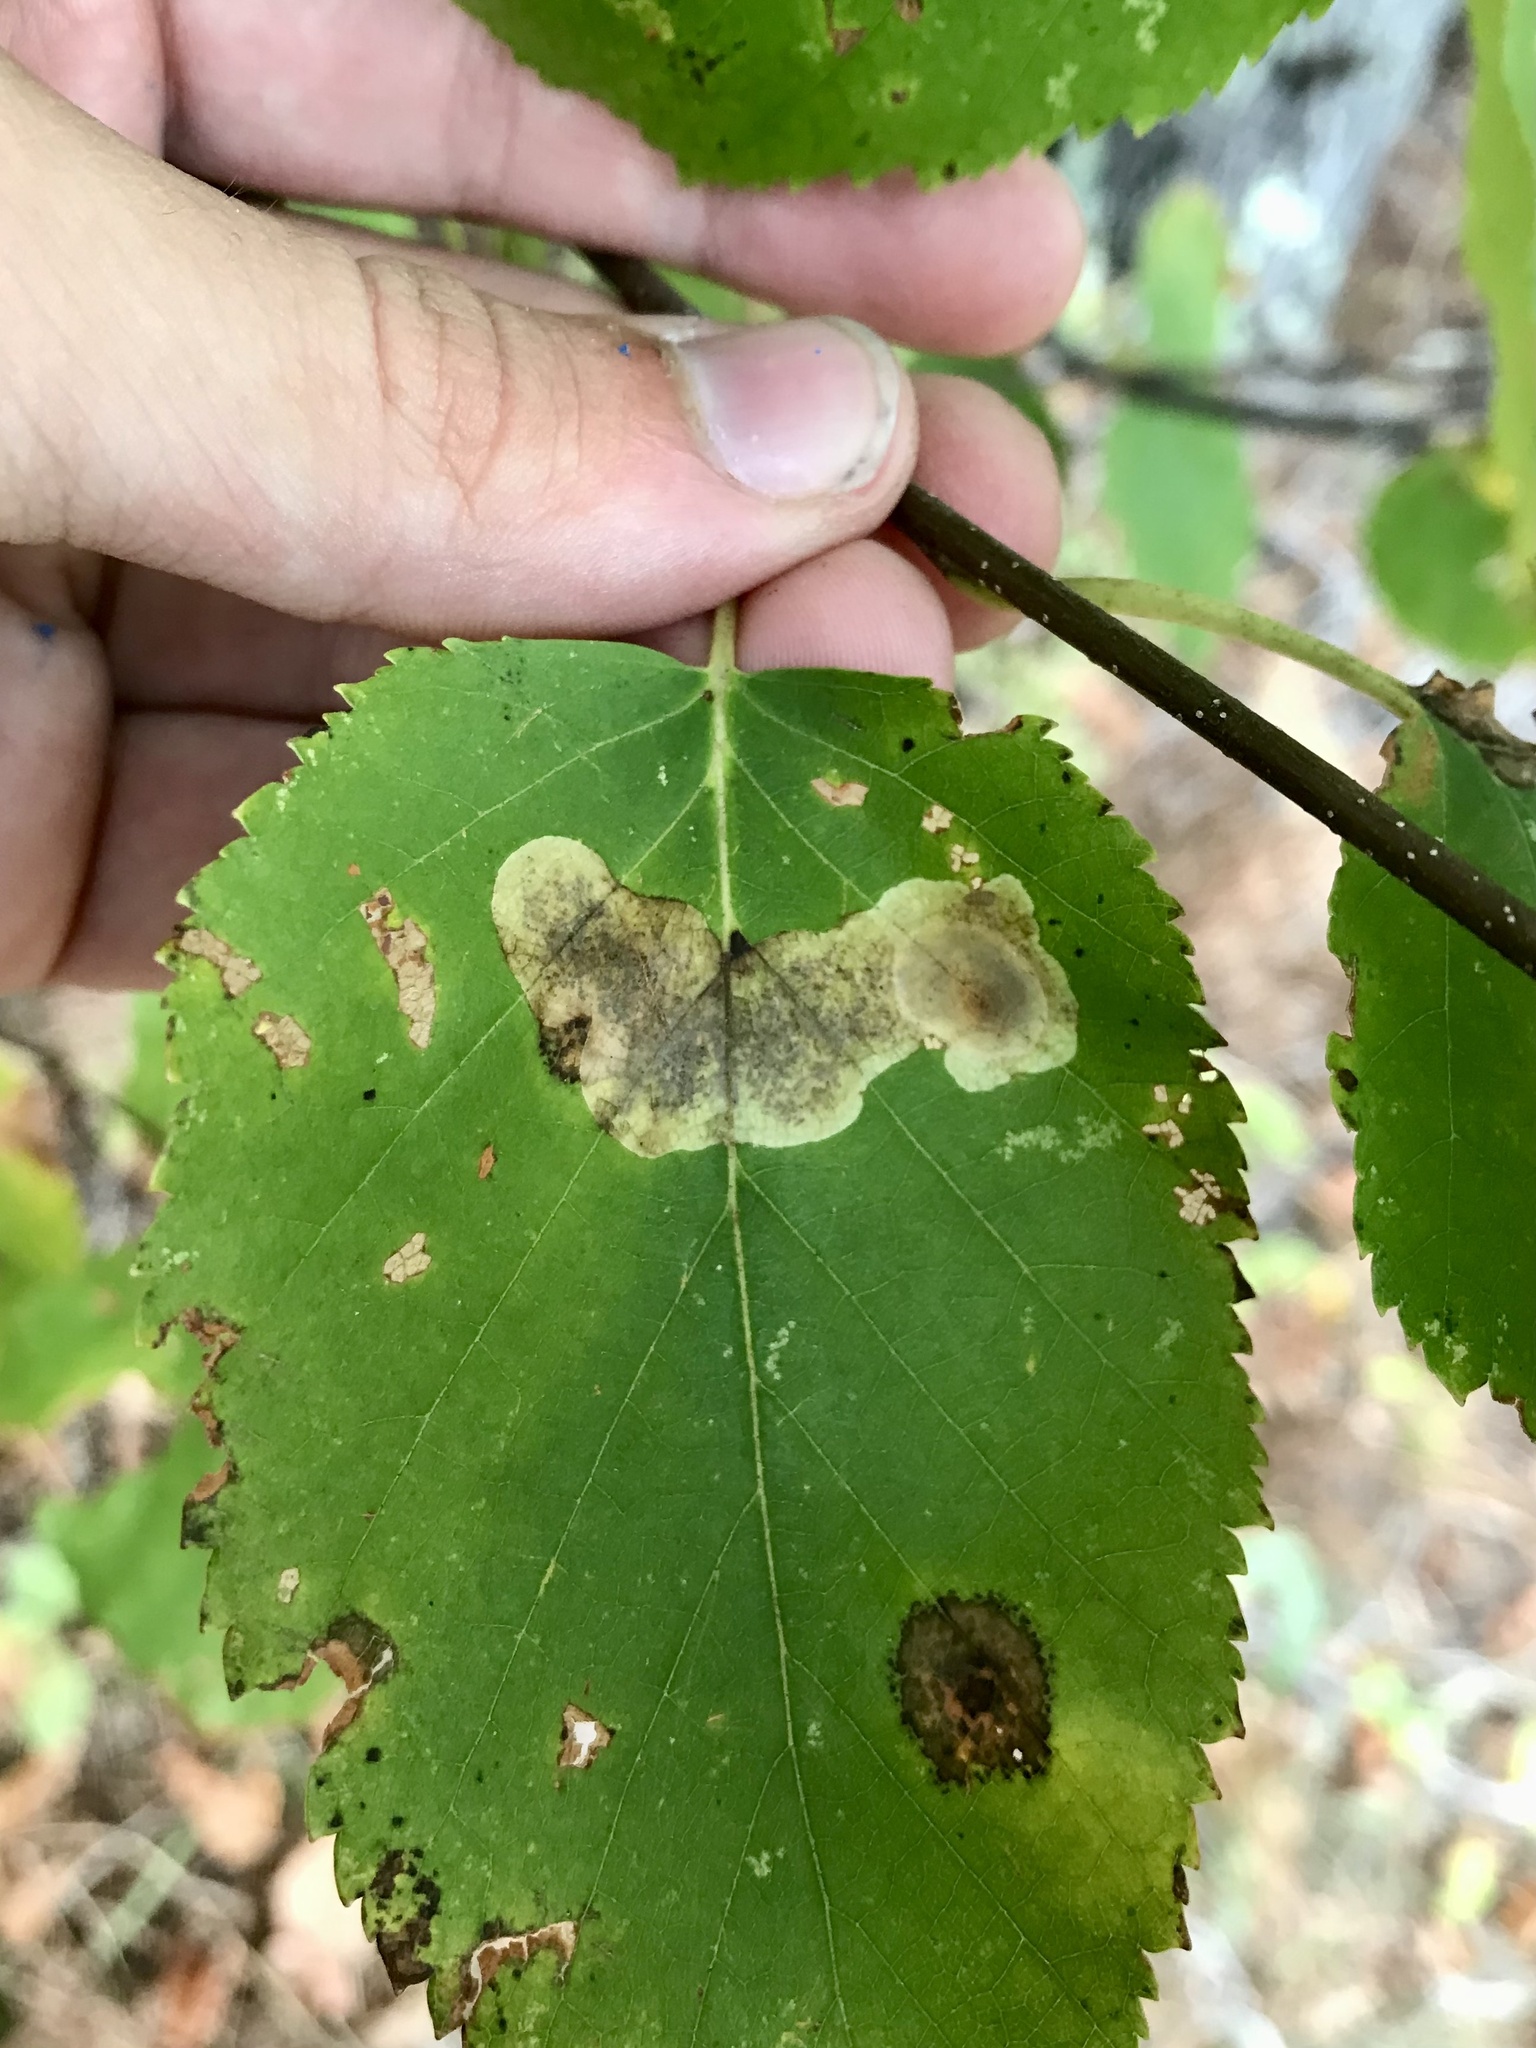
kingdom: Animalia
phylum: Arthropoda
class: Insecta
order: Lepidoptera
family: Gracillariidae
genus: Cameraria
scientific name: Cameraria betulivora
